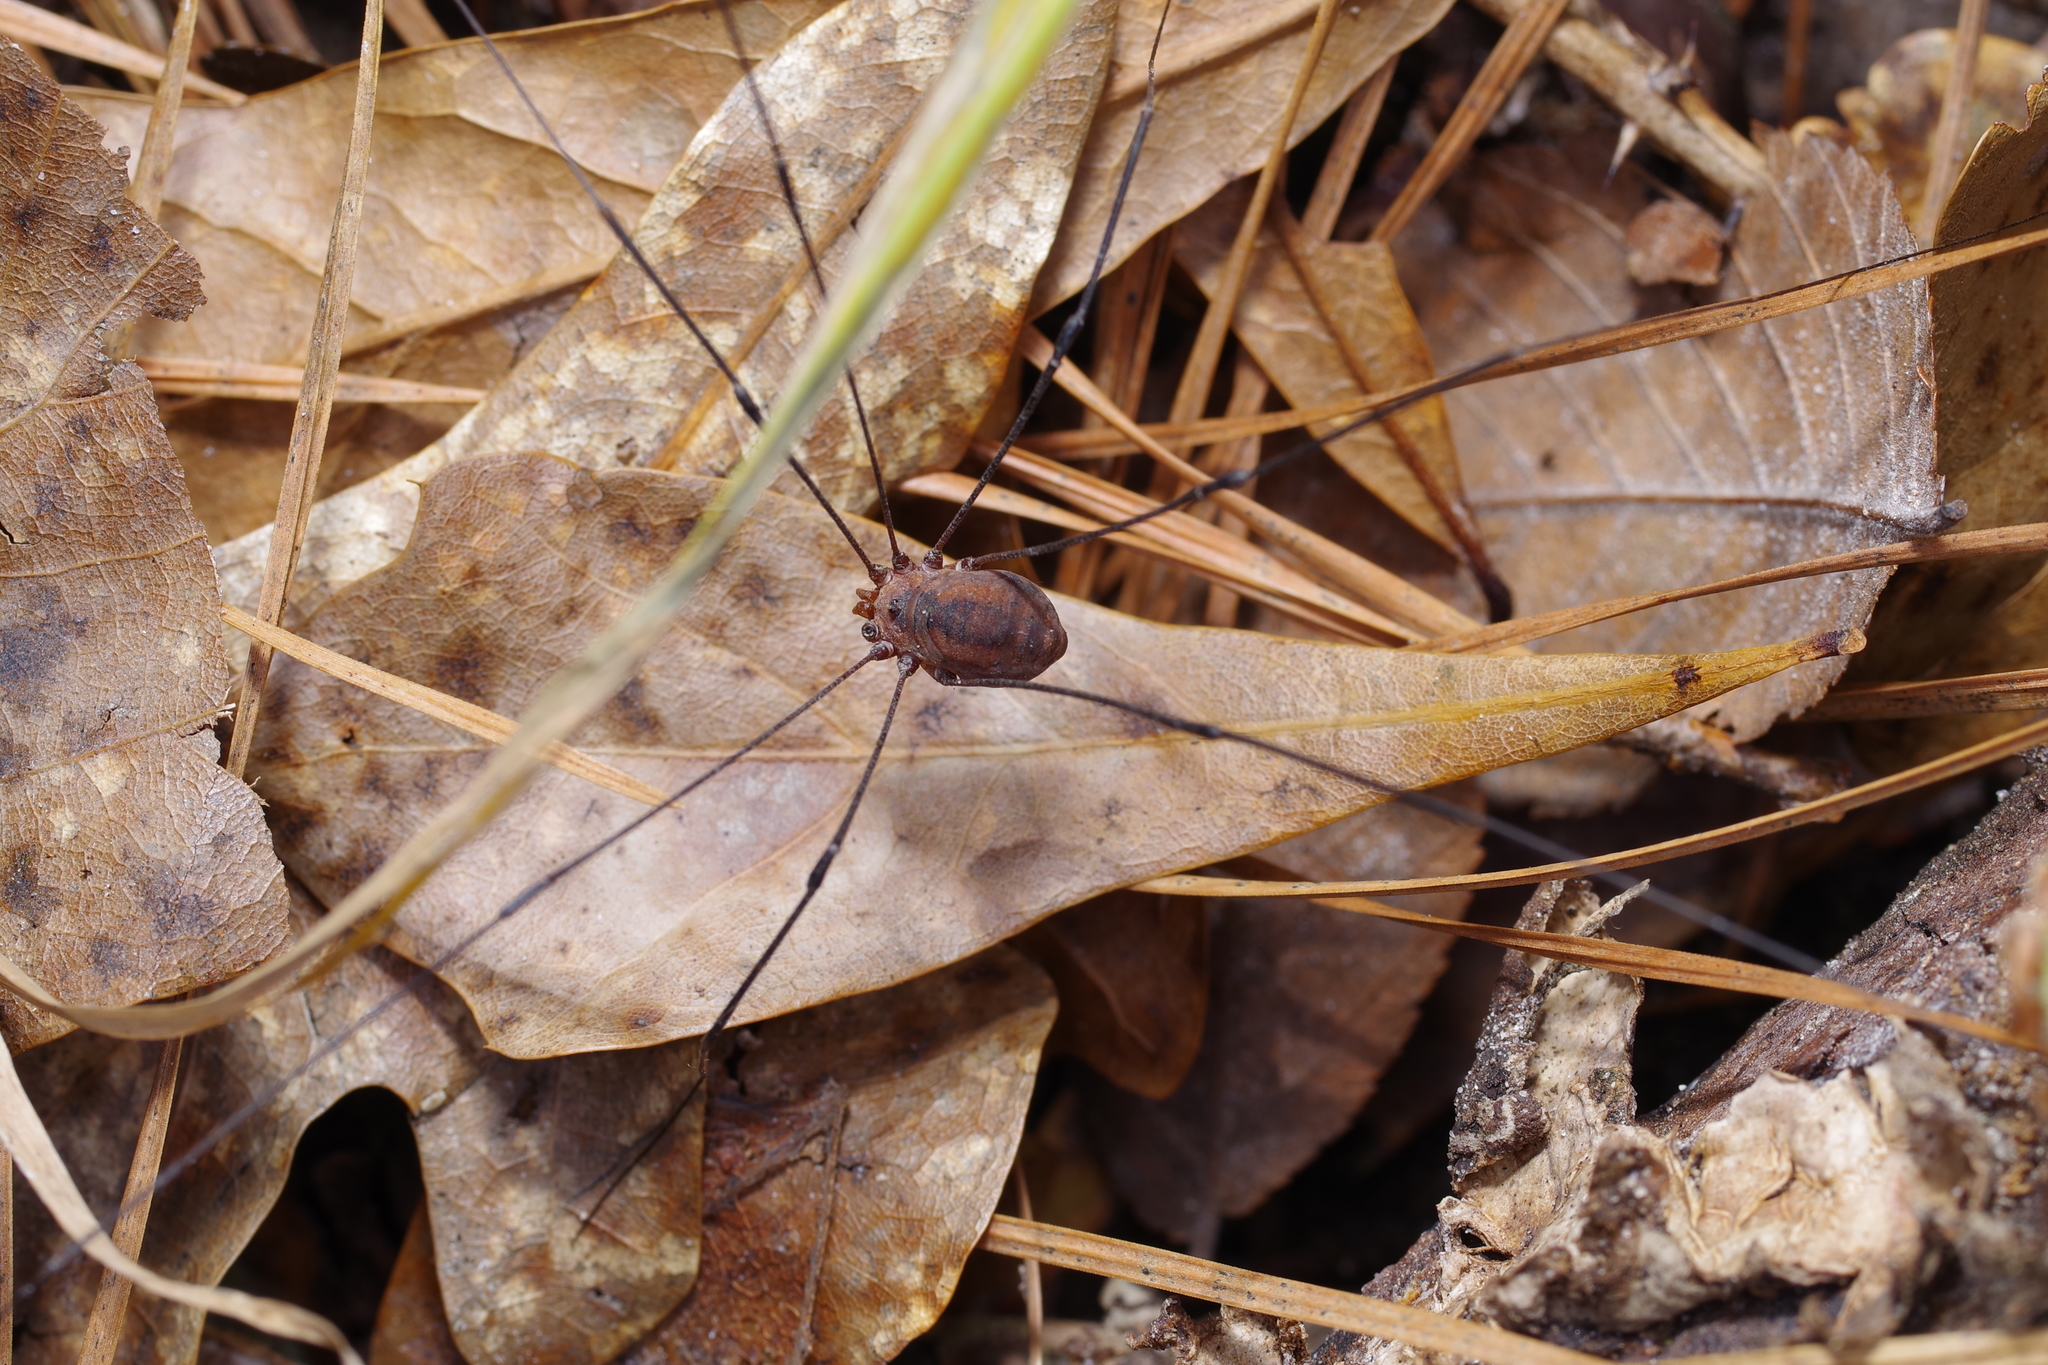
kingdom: Animalia
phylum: Arthropoda
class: Arachnida
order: Opiliones
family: Sclerosomatidae
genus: Leiobunum
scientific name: Leiobunum vittatum
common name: Eastern harvestman
